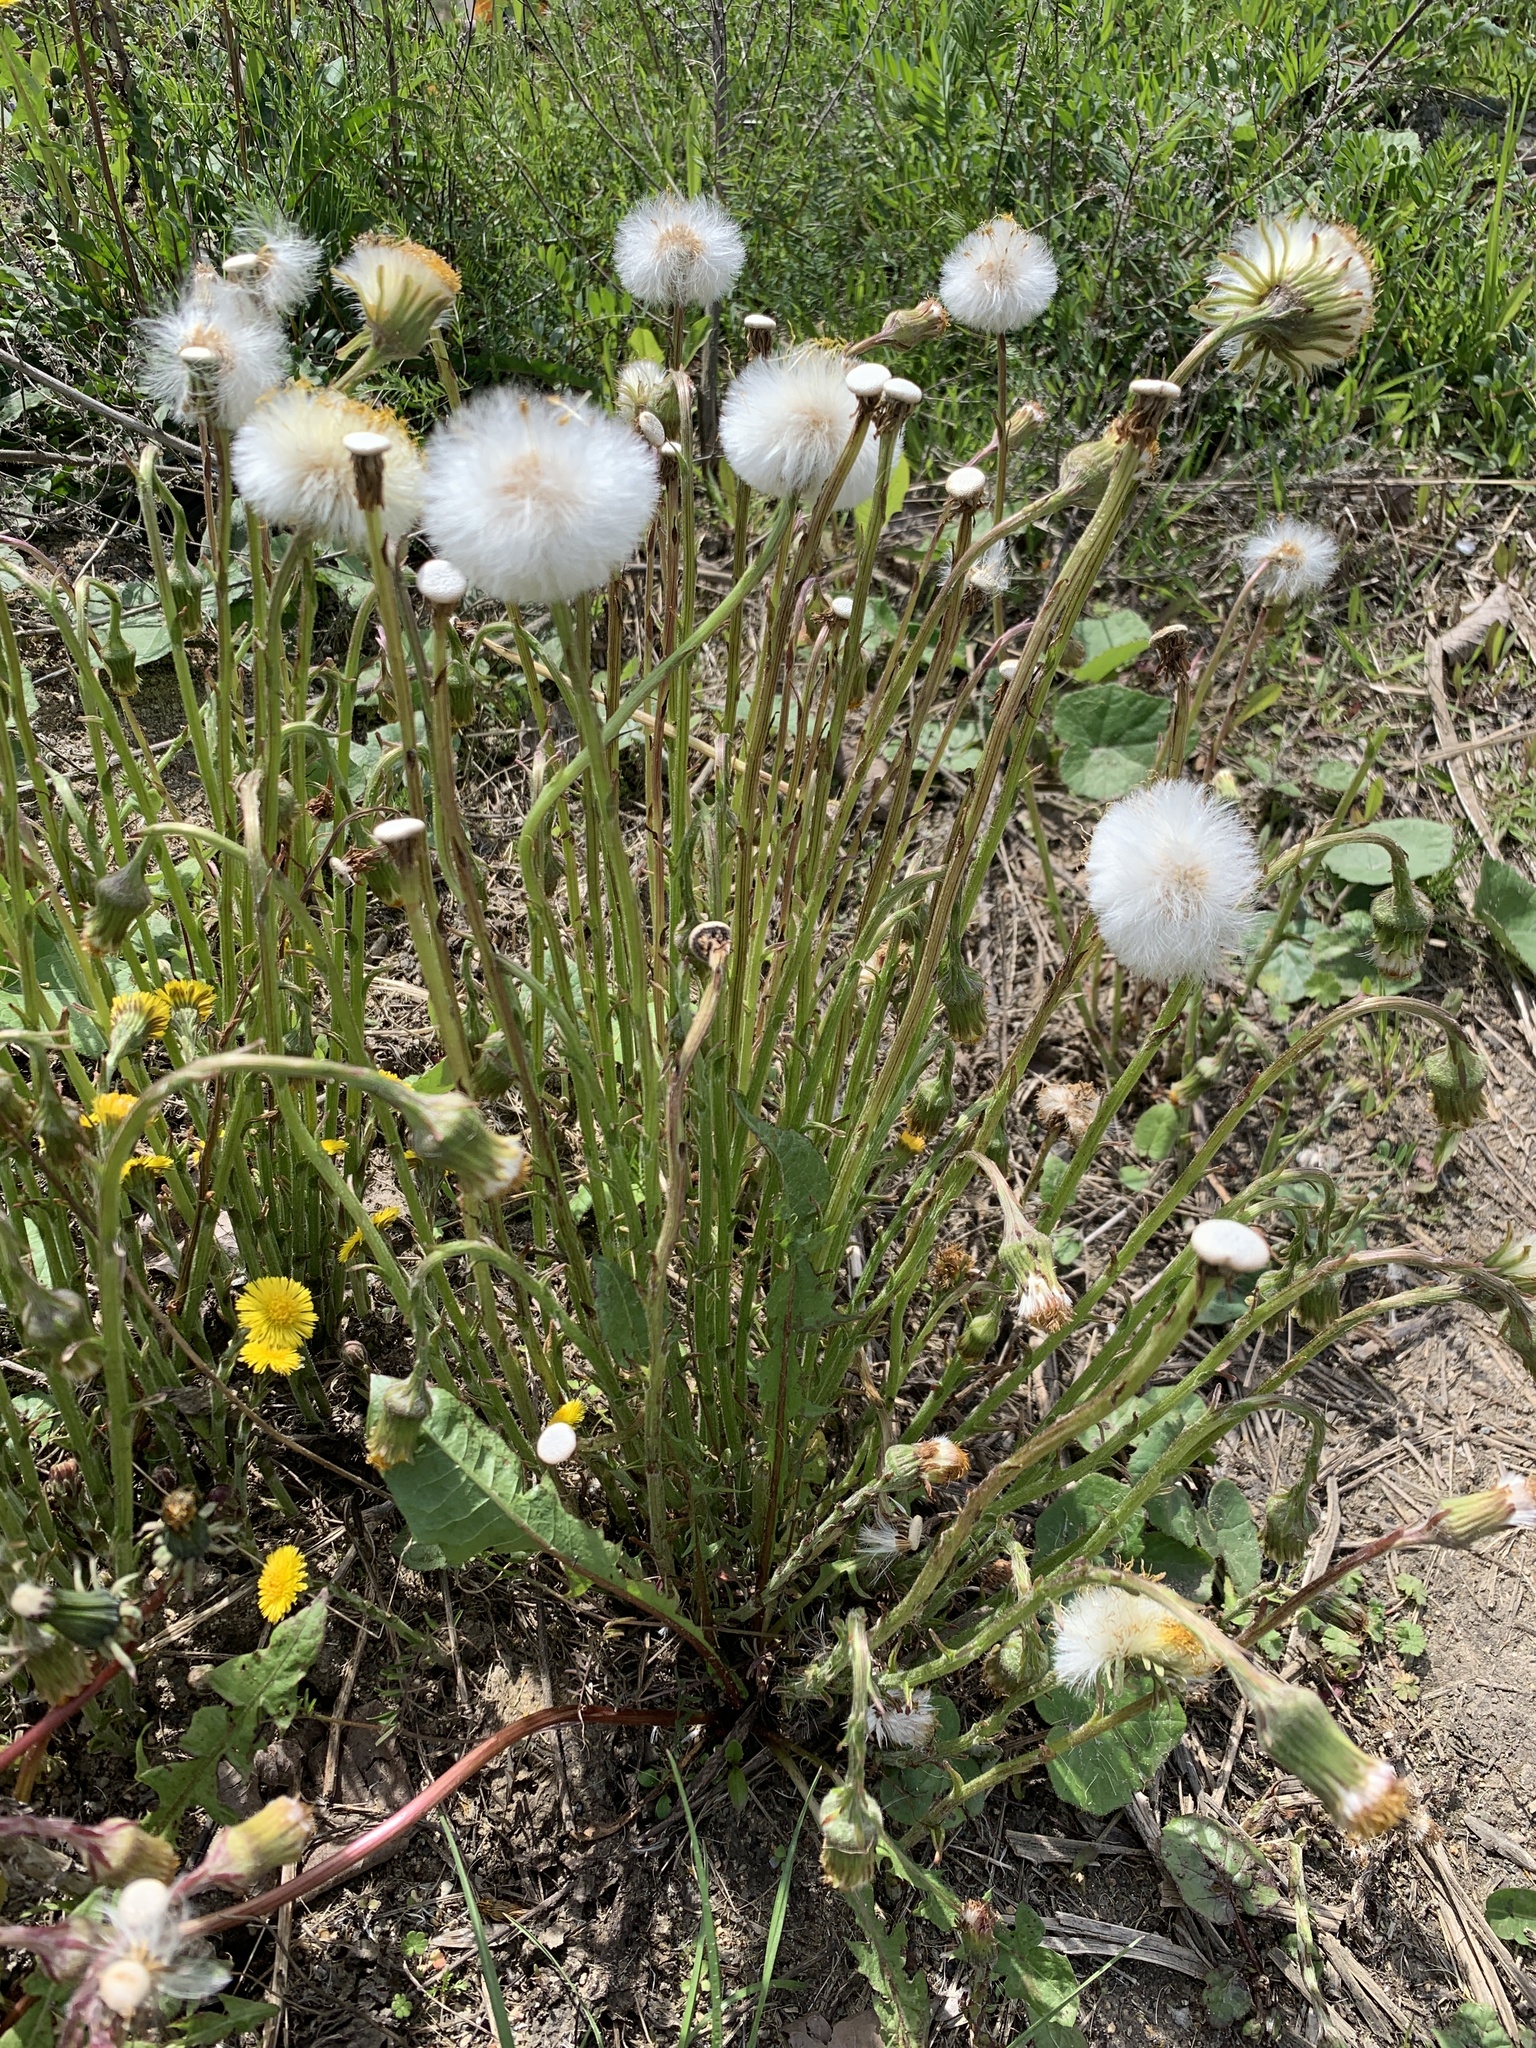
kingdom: Plantae
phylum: Tracheophyta
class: Magnoliopsida
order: Asterales
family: Asteraceae
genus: Tussilago
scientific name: Tussilago farfara
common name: Coltsfoot
